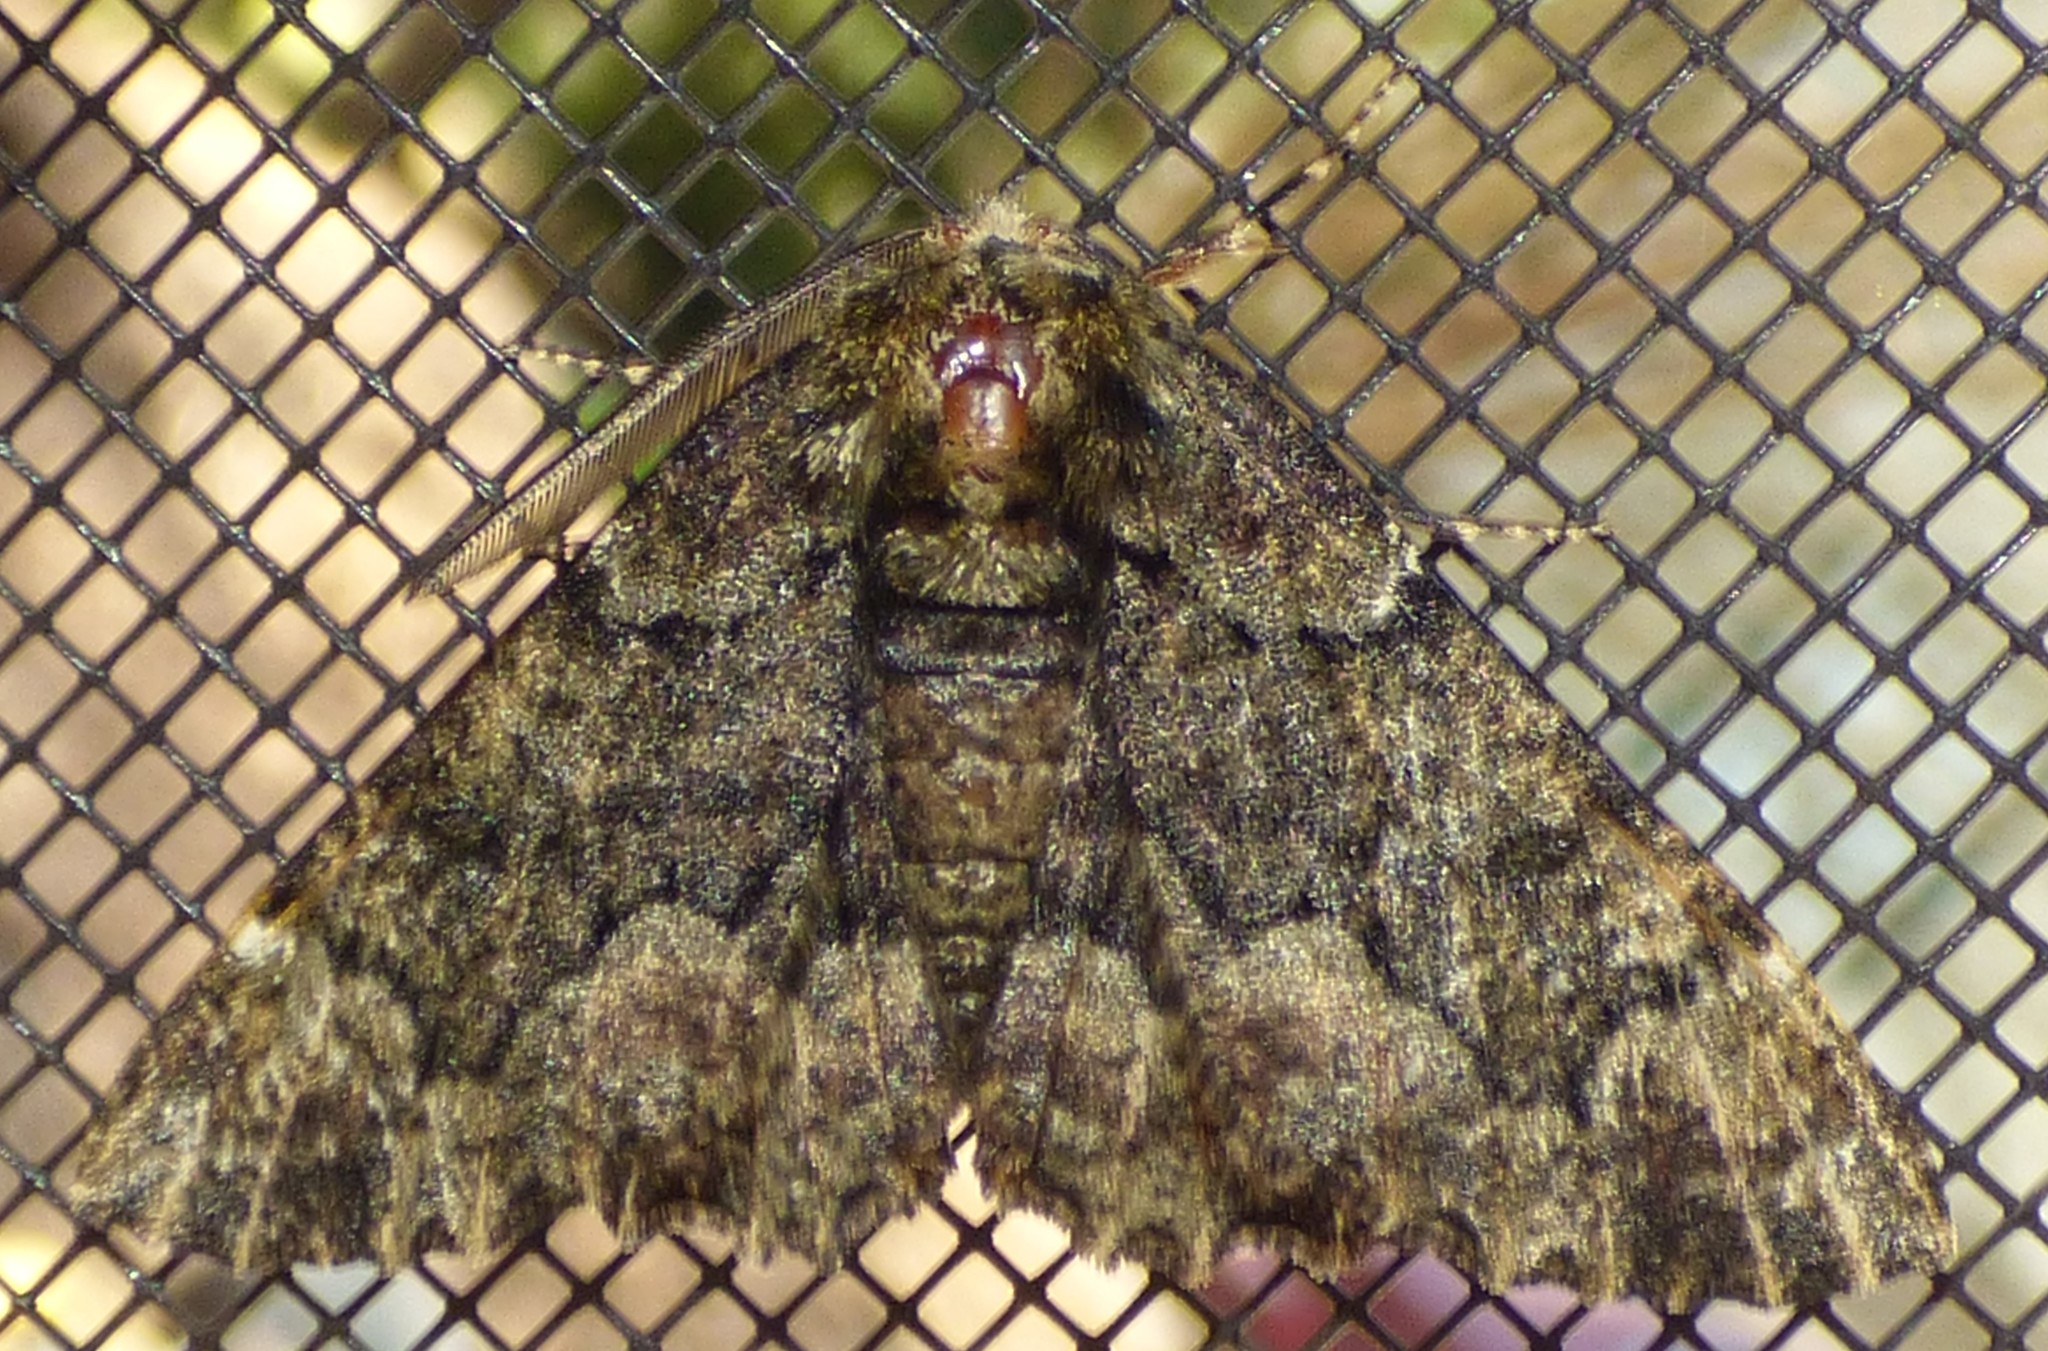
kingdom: Animalia
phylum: Arthropoda
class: Insecta
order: Lepidoptera
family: Geometridae
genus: Phaeoura
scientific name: Phaeoura quernaria
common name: Oak beauty
